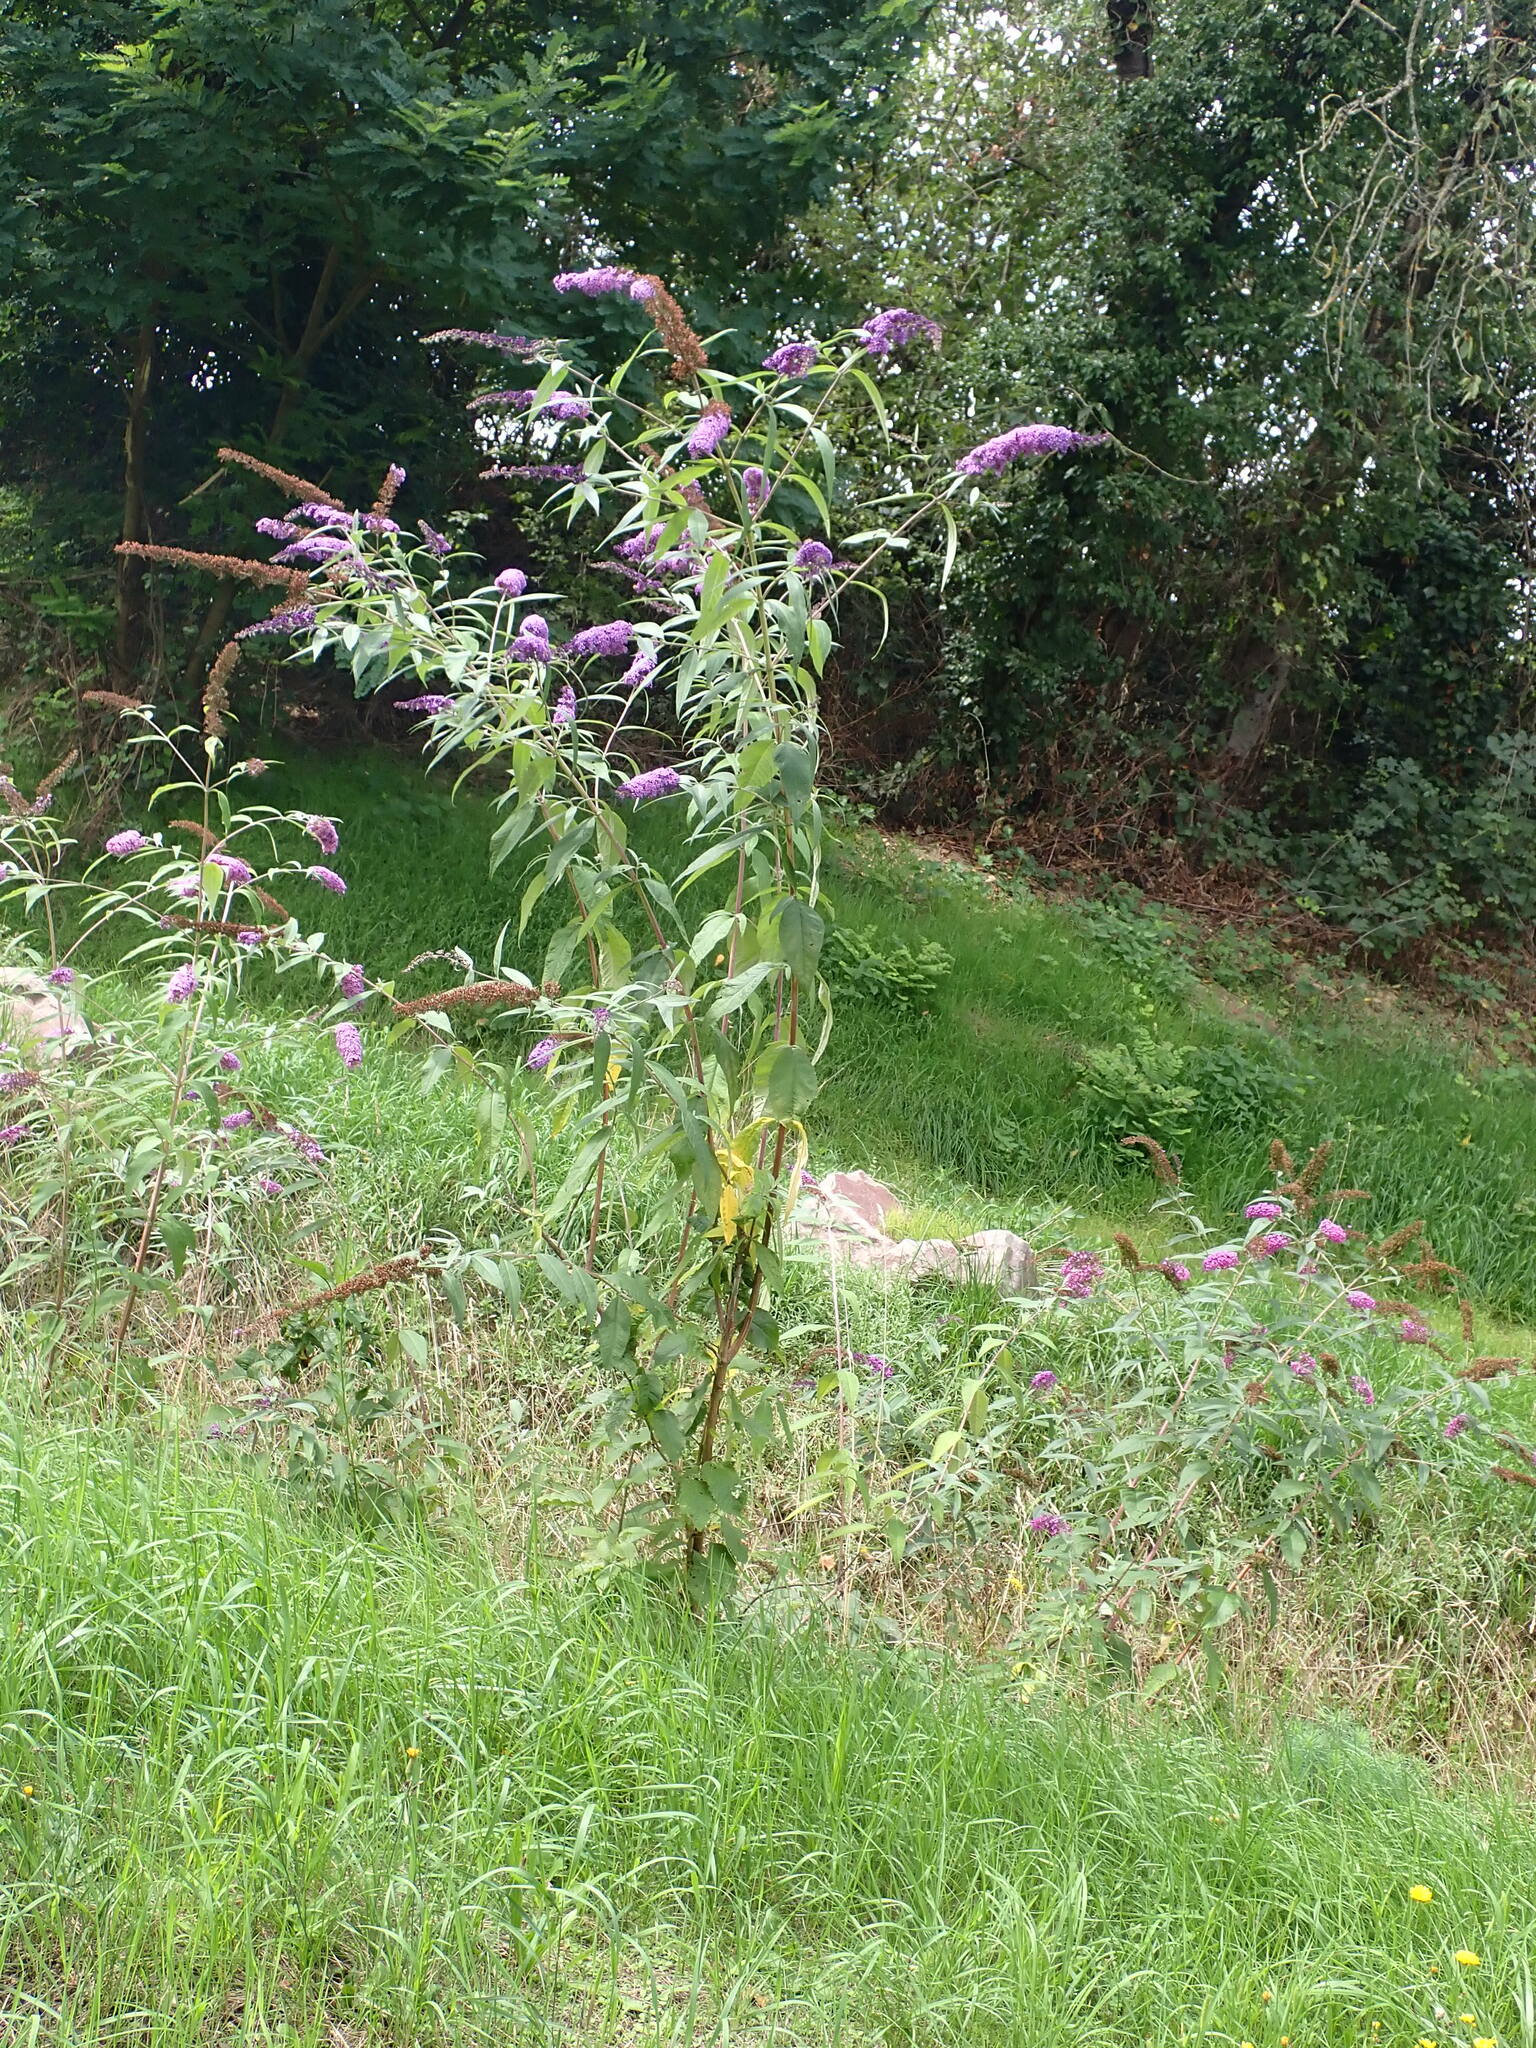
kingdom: Plantae
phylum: Tracheophyta
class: Magnoliopsida
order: Lamiales
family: Scrophulariaceae
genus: Buddleja
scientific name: Buddleja davidii
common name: Butterfly-bush
